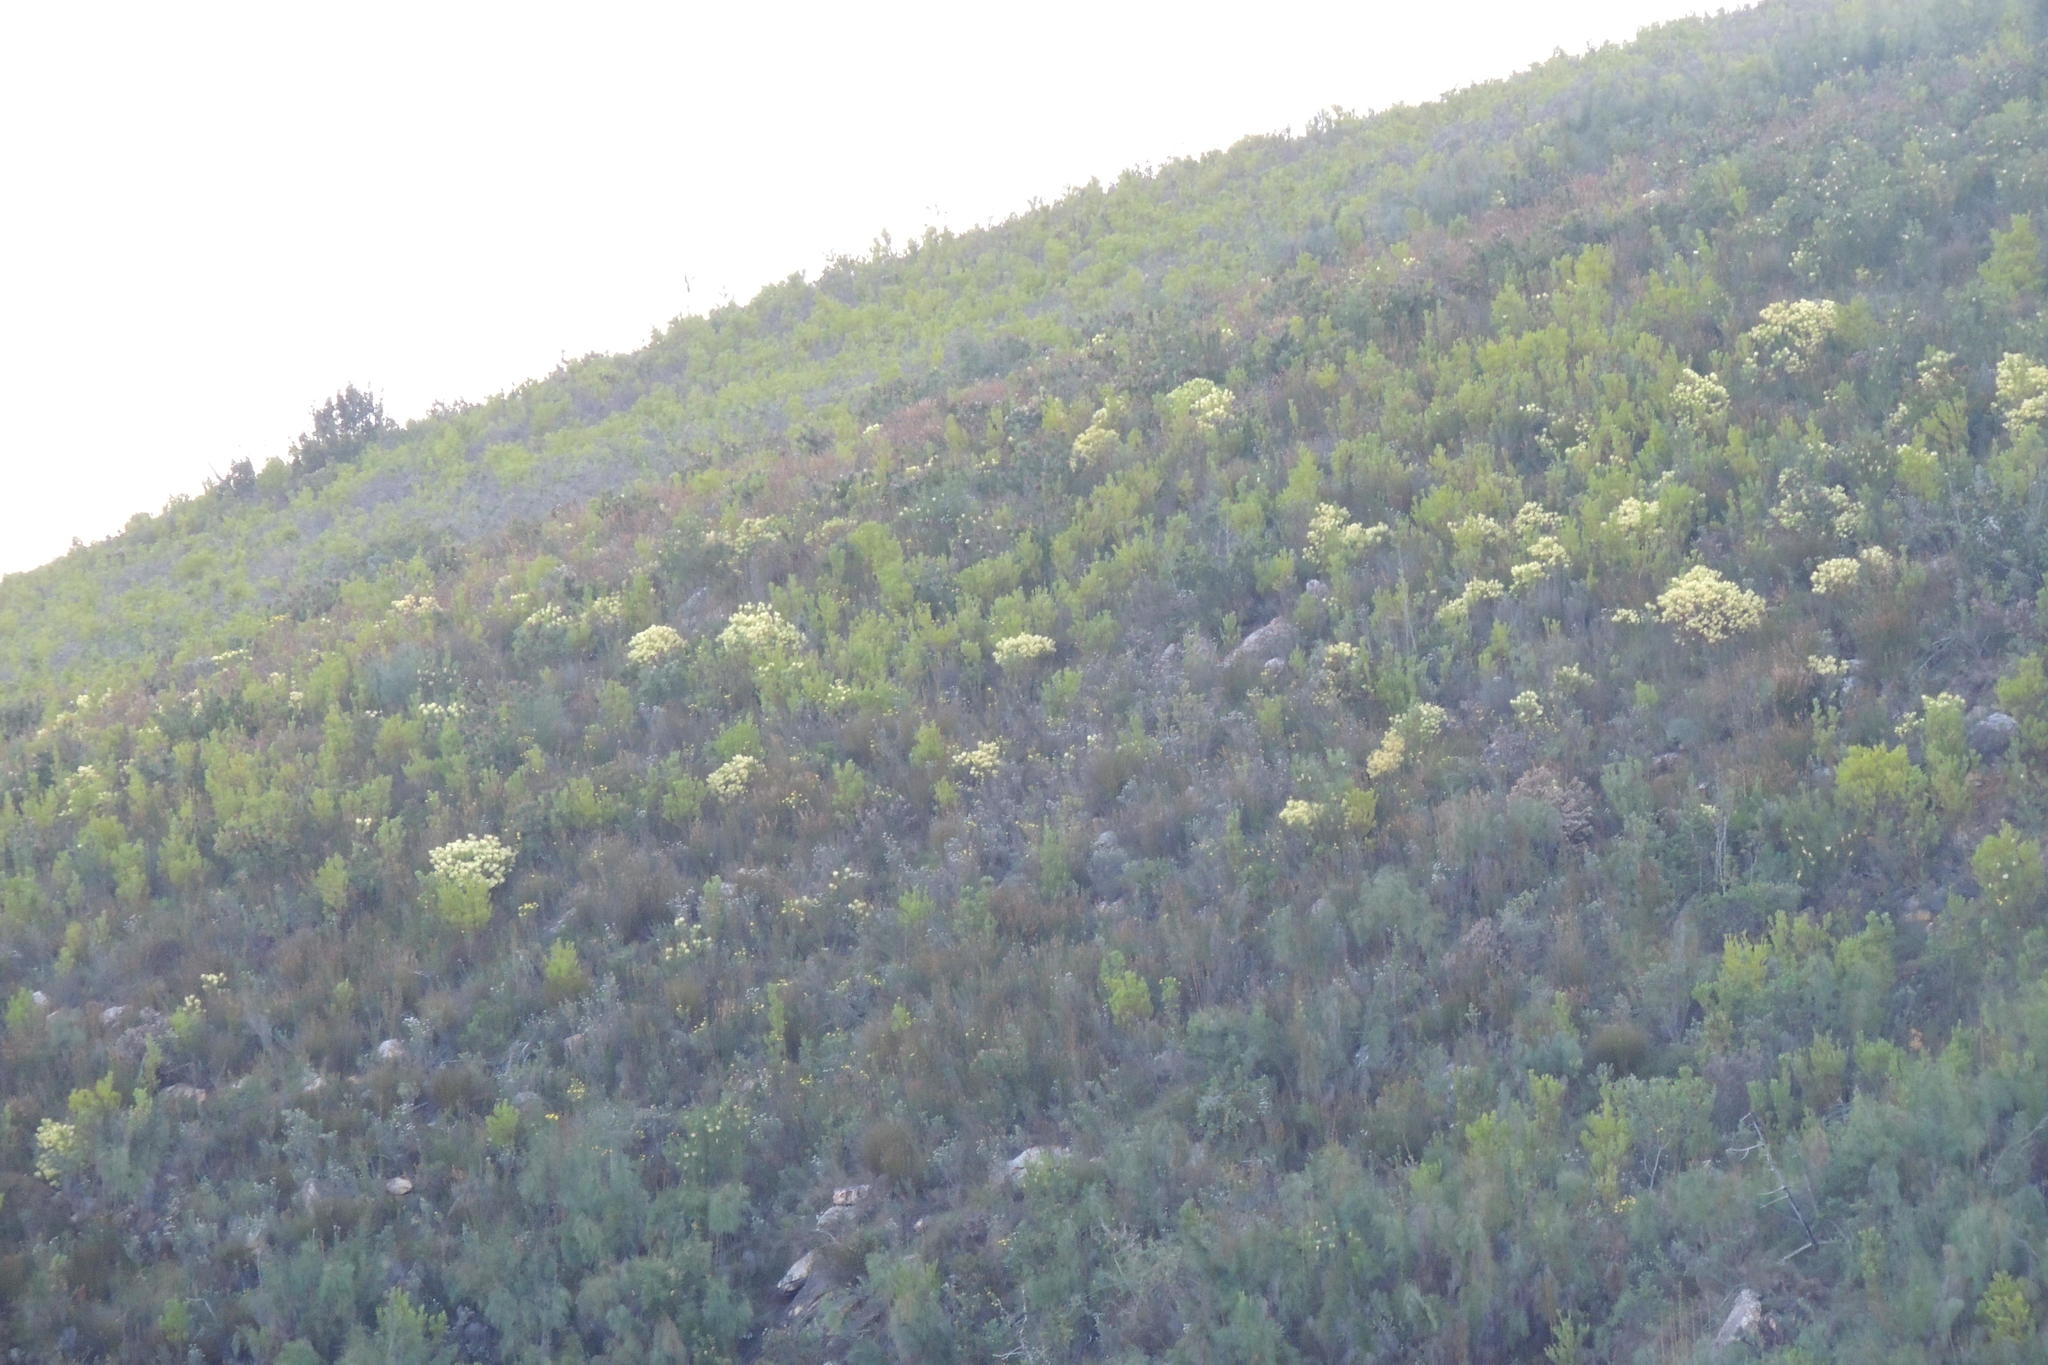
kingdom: Plantae
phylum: Tracheophyta
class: Magnoliopsida
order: Proteales
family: Proteaceae
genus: Leucadendron
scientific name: Leucadendron tradouwense
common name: Tradouw conebush
